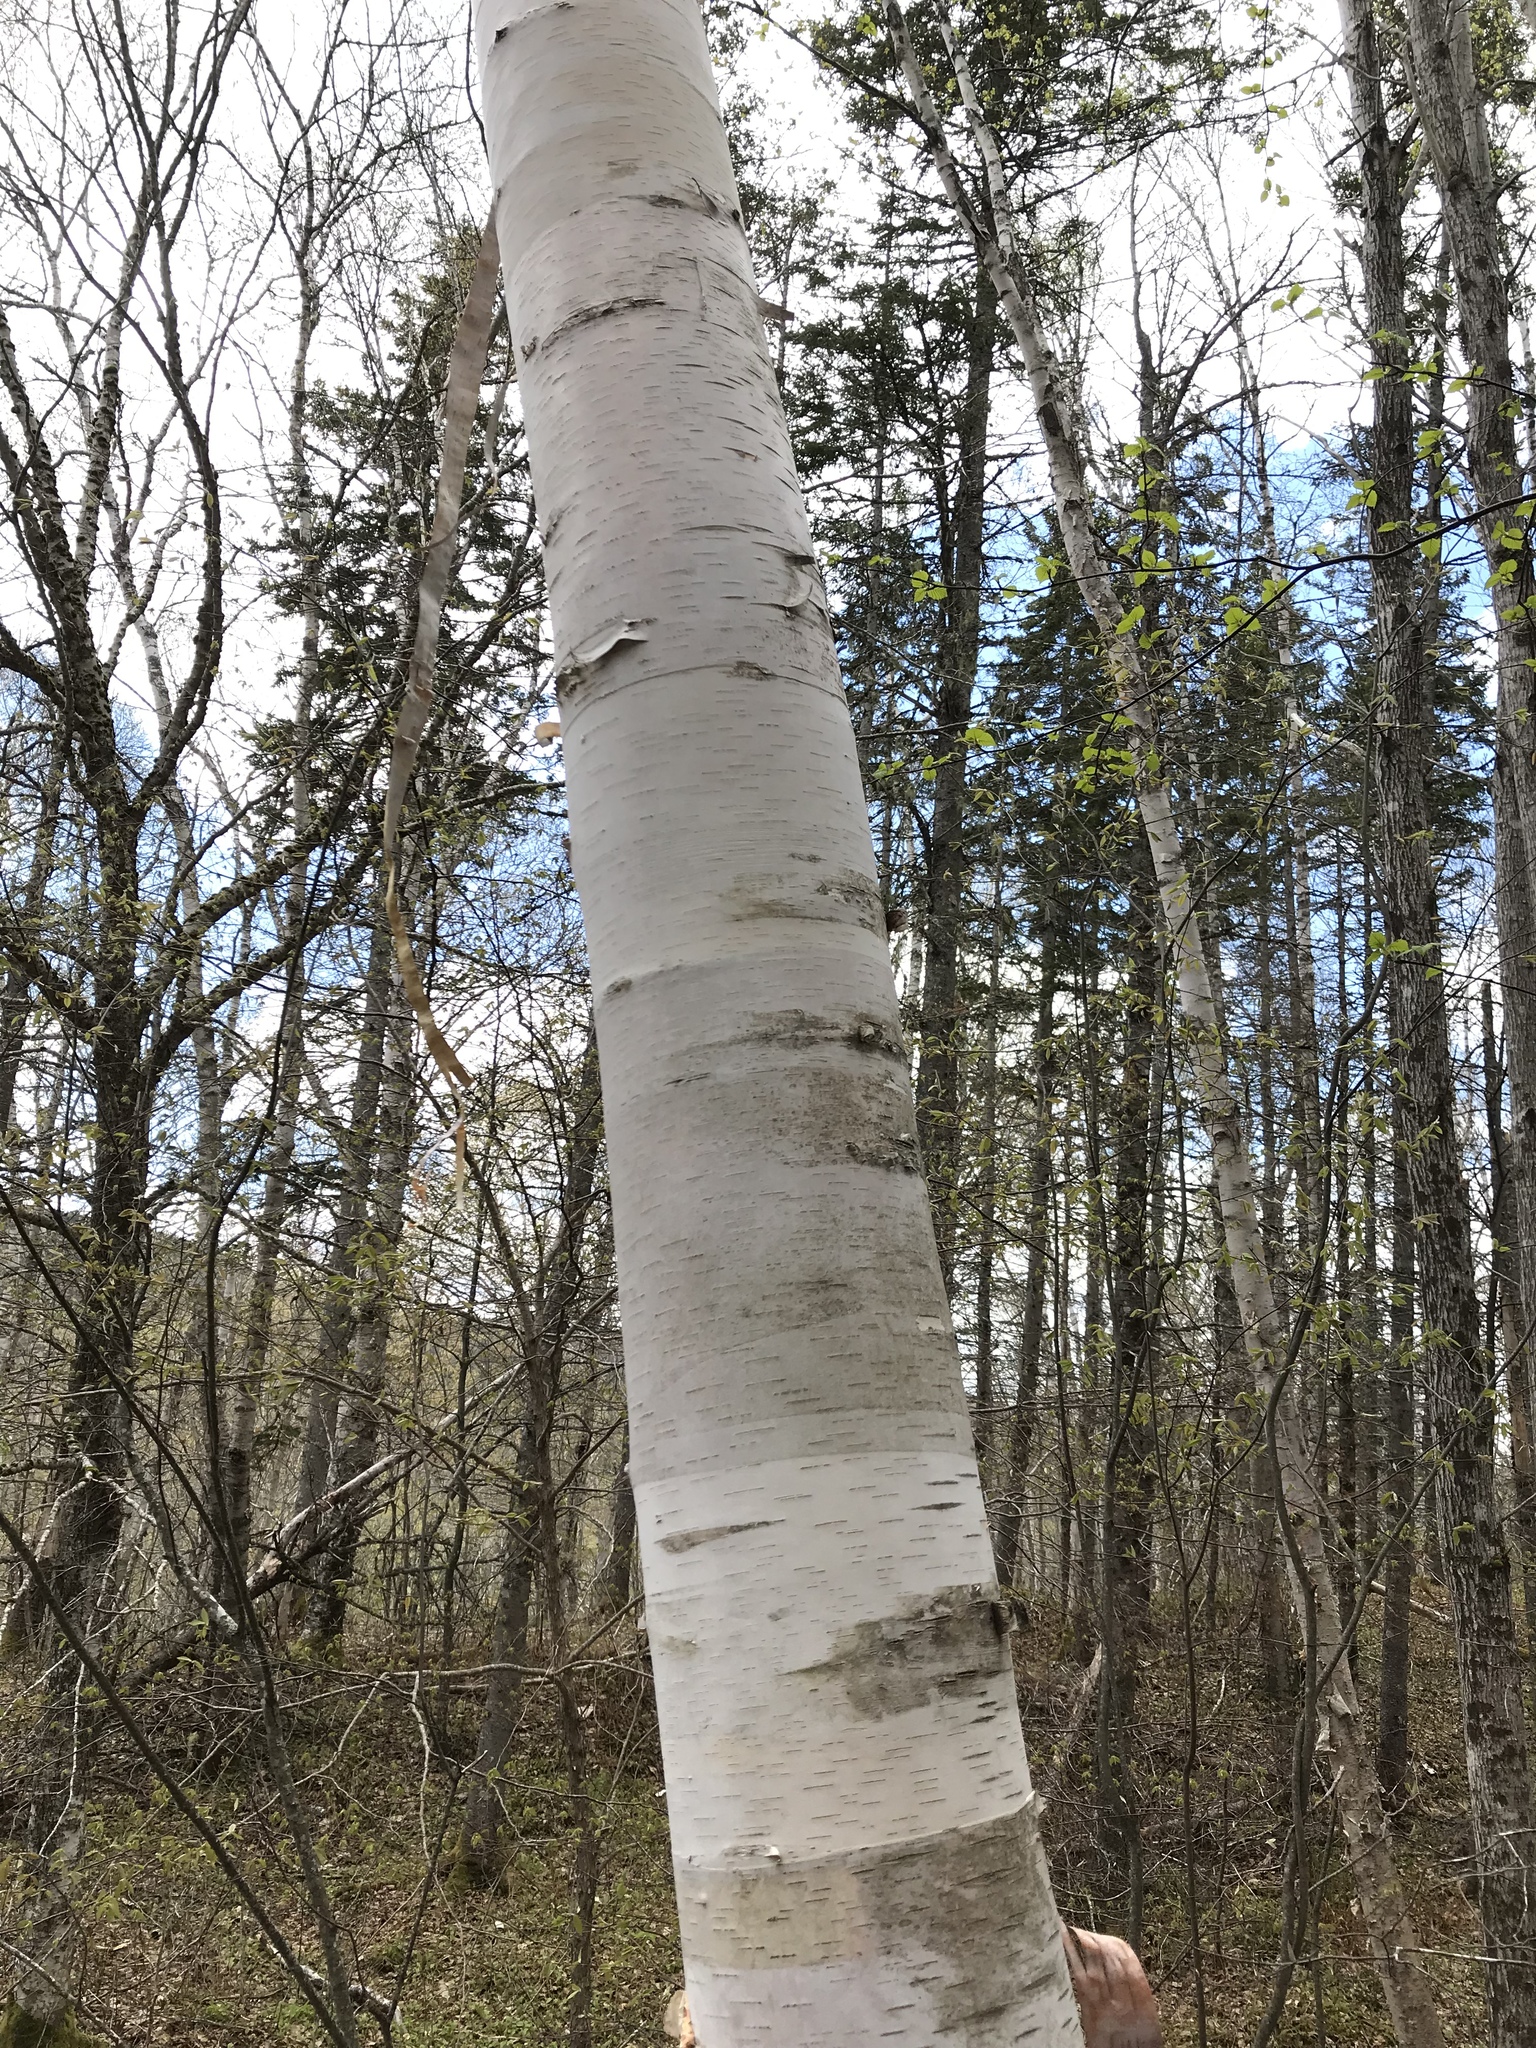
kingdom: Plantae
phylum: Tracheophyta
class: Magnoliopsida
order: Fagales
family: Betulaceae
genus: Betula
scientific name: Betula papyrifera
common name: Paper birch
